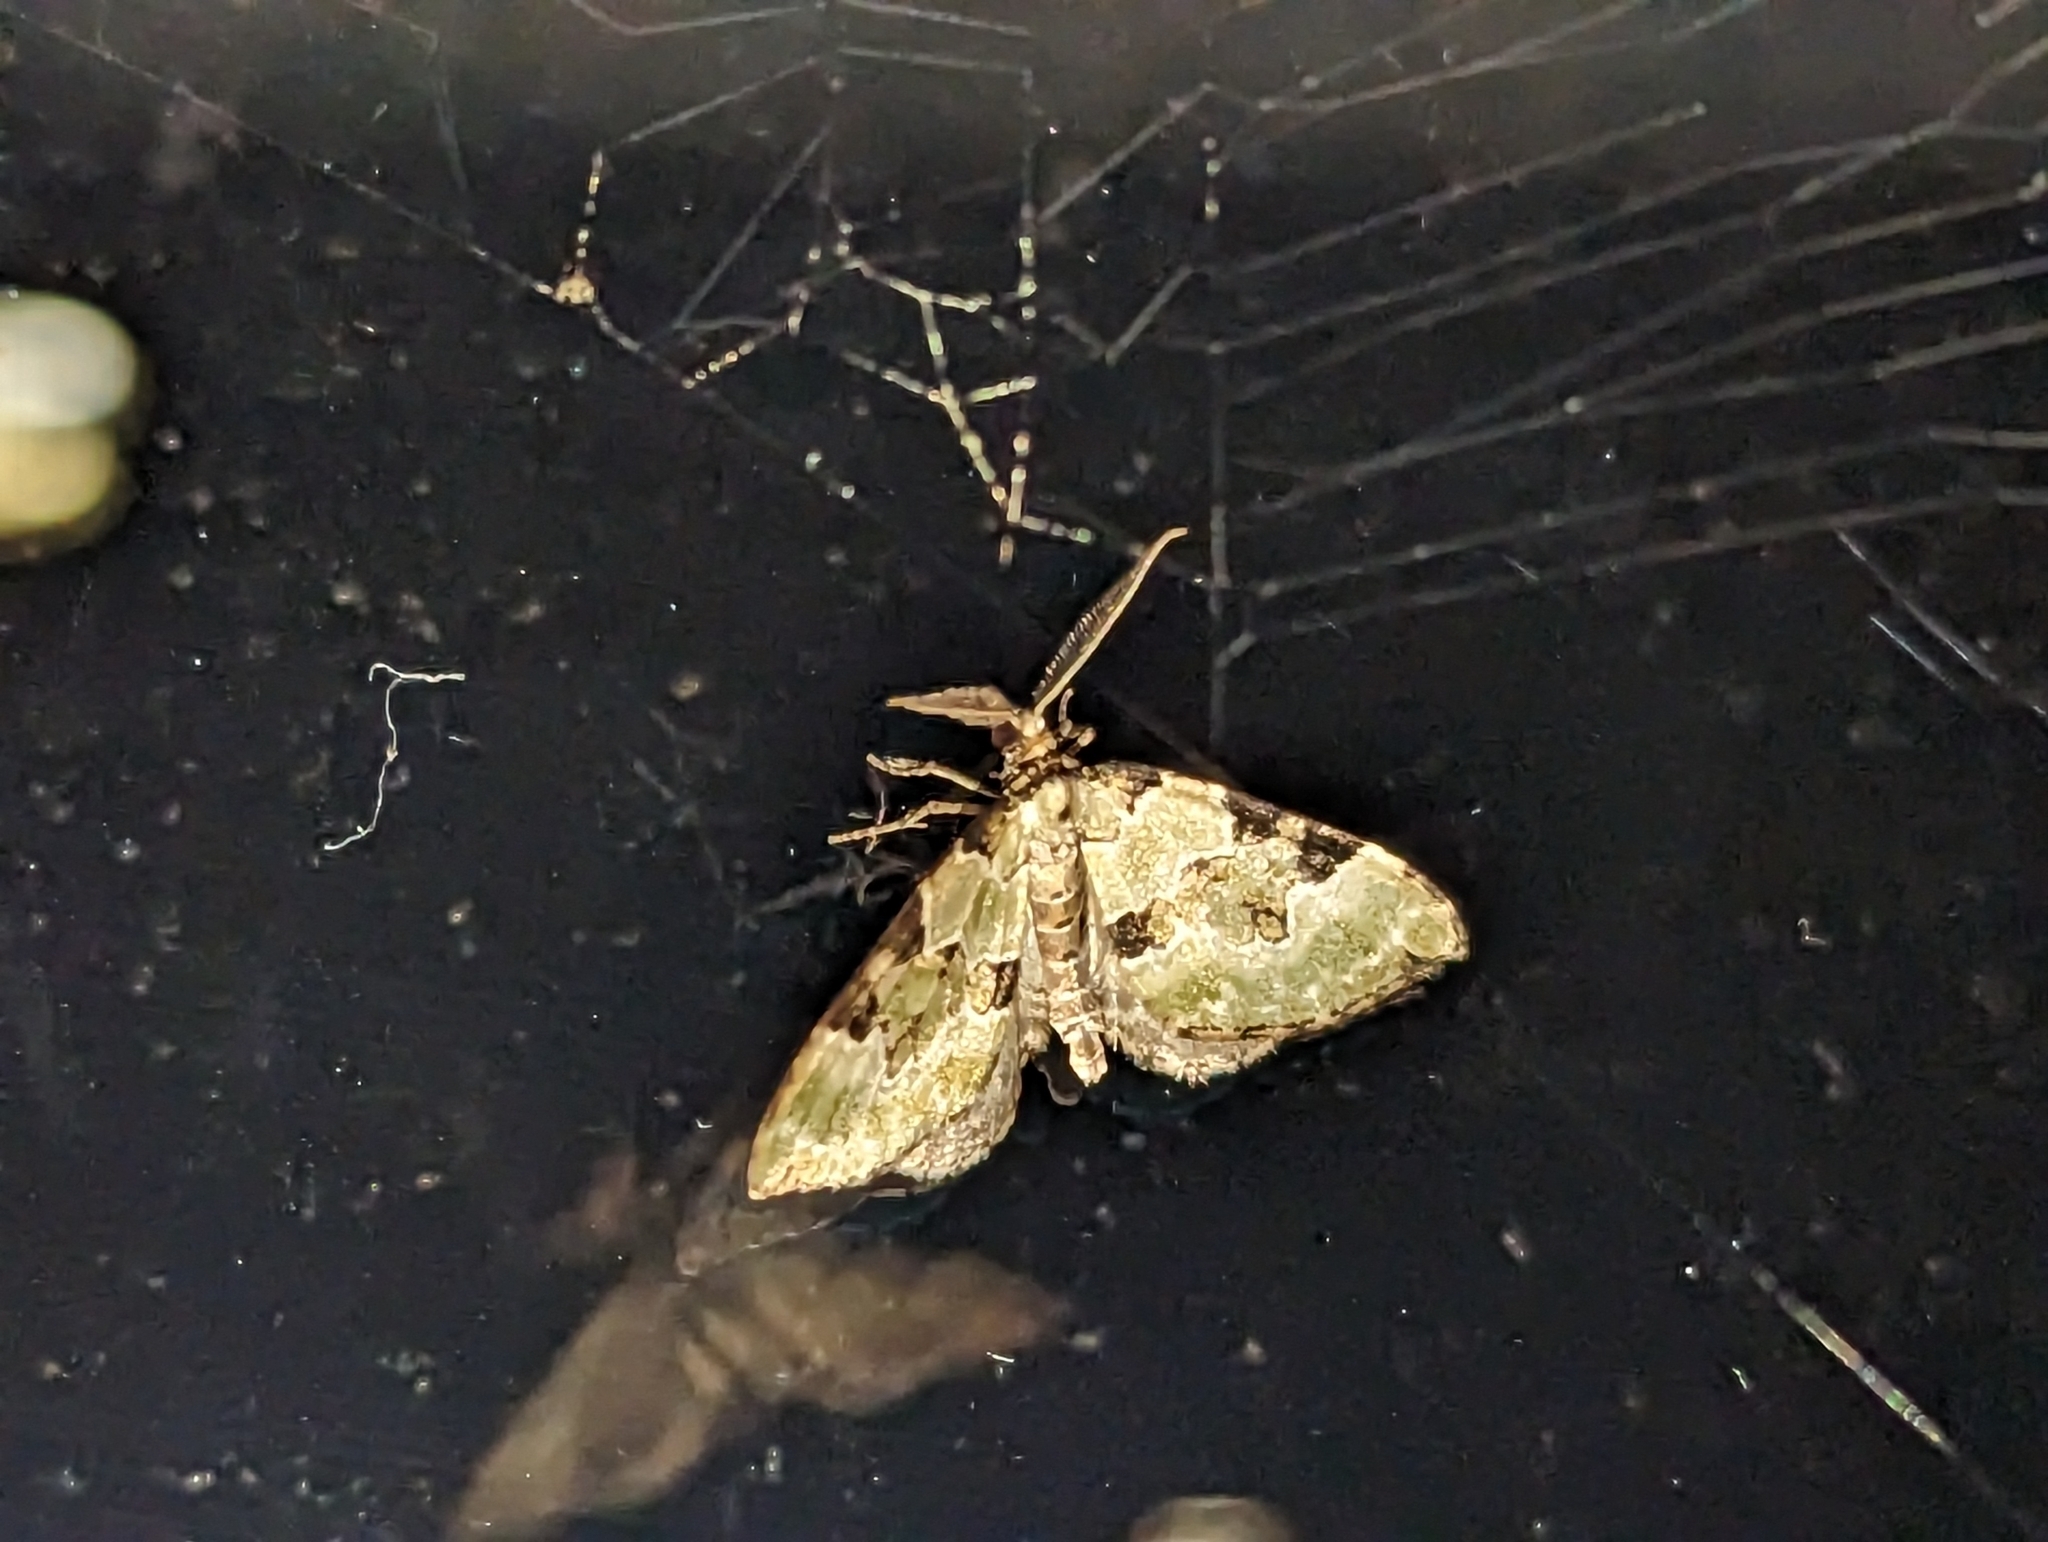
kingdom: Animalia
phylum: Arthropoda
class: Insecta
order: Lepidoptera
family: Geometridae
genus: Colostygia
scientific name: Colostygia pectinataria
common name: Green carpet
